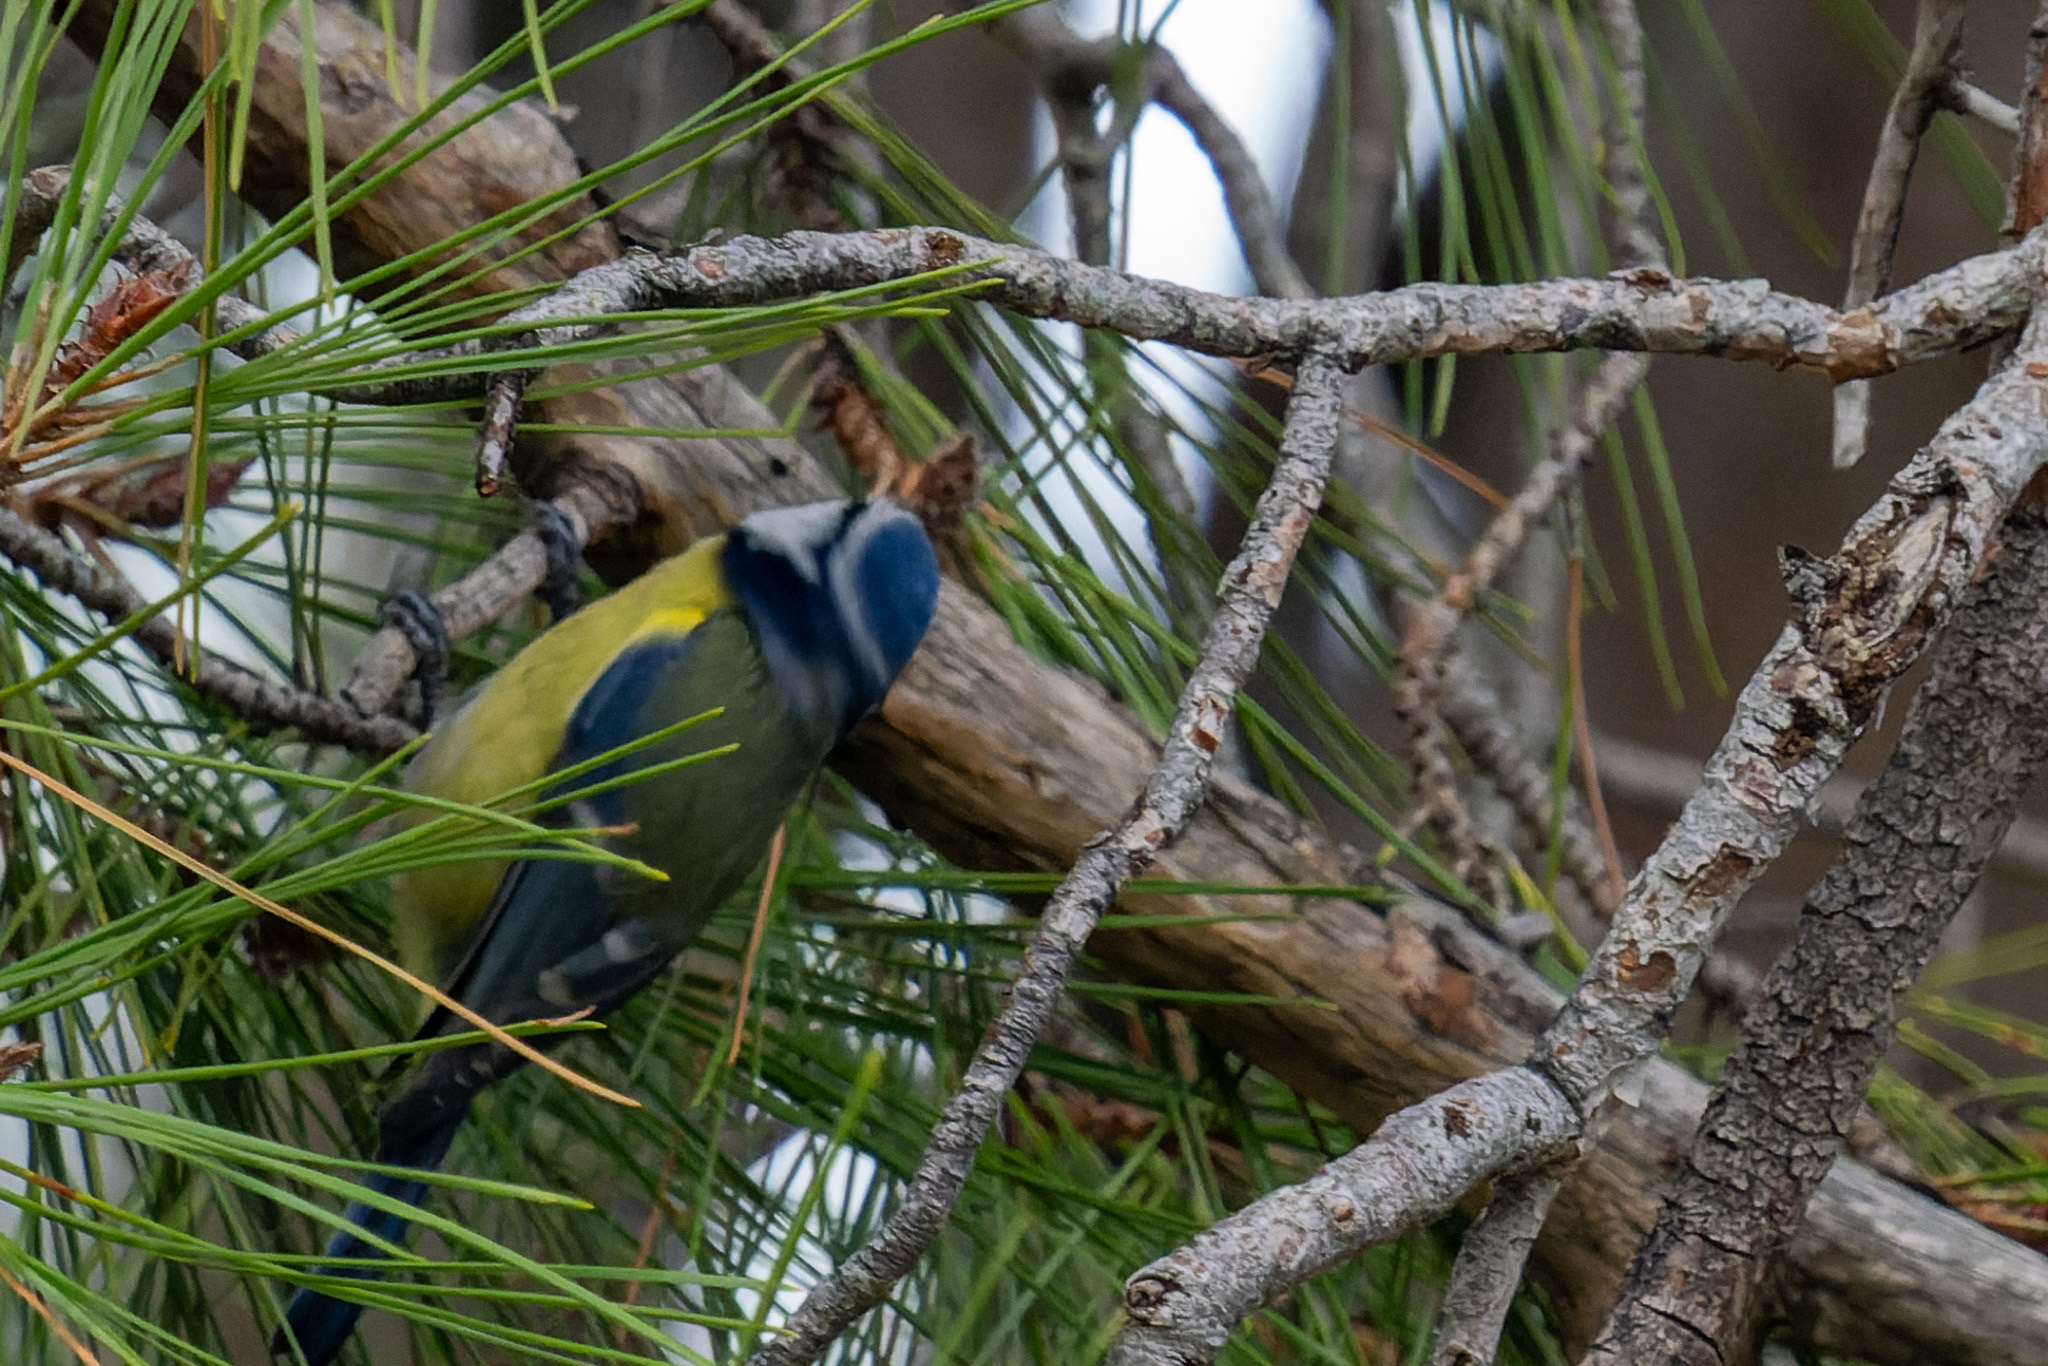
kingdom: Animalia
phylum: Chordata
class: Aves
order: Passeriformes
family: Paridae
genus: Cyanistes
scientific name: Cyanistes caeruleus
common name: Eurasian blue tit
